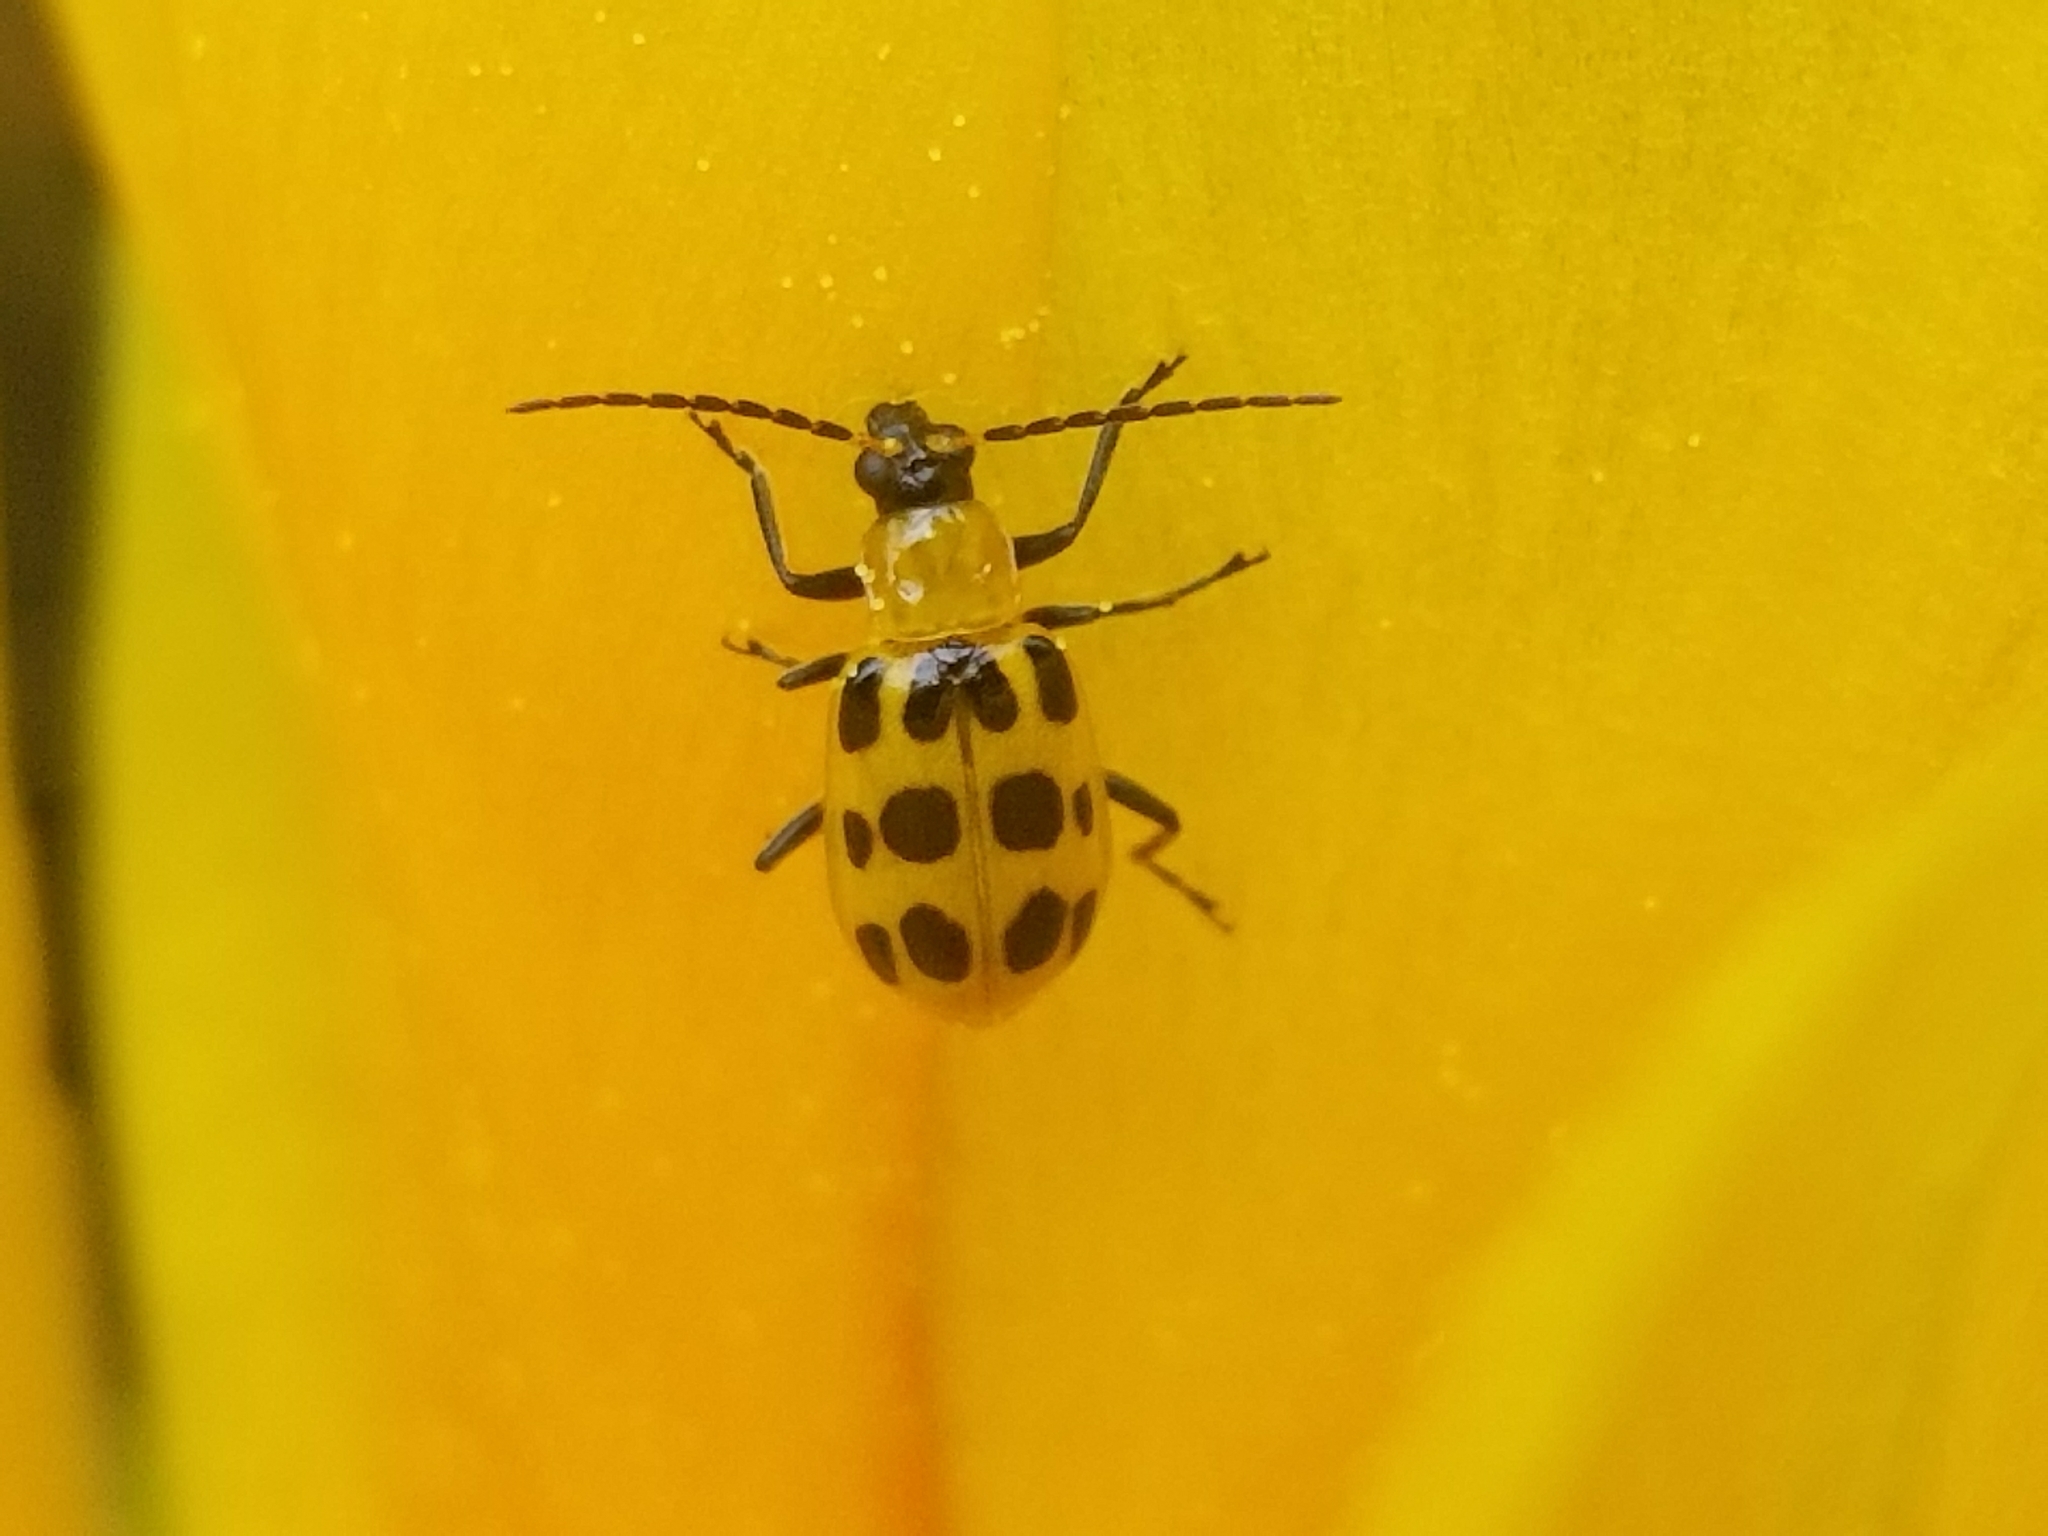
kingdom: Animalia
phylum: Arthropoda
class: Insecta
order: Coleoptera
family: Chrysomelidae
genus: Diabrotica
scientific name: Diabrotica undecimpunctata
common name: Spotted cucumber beetle
